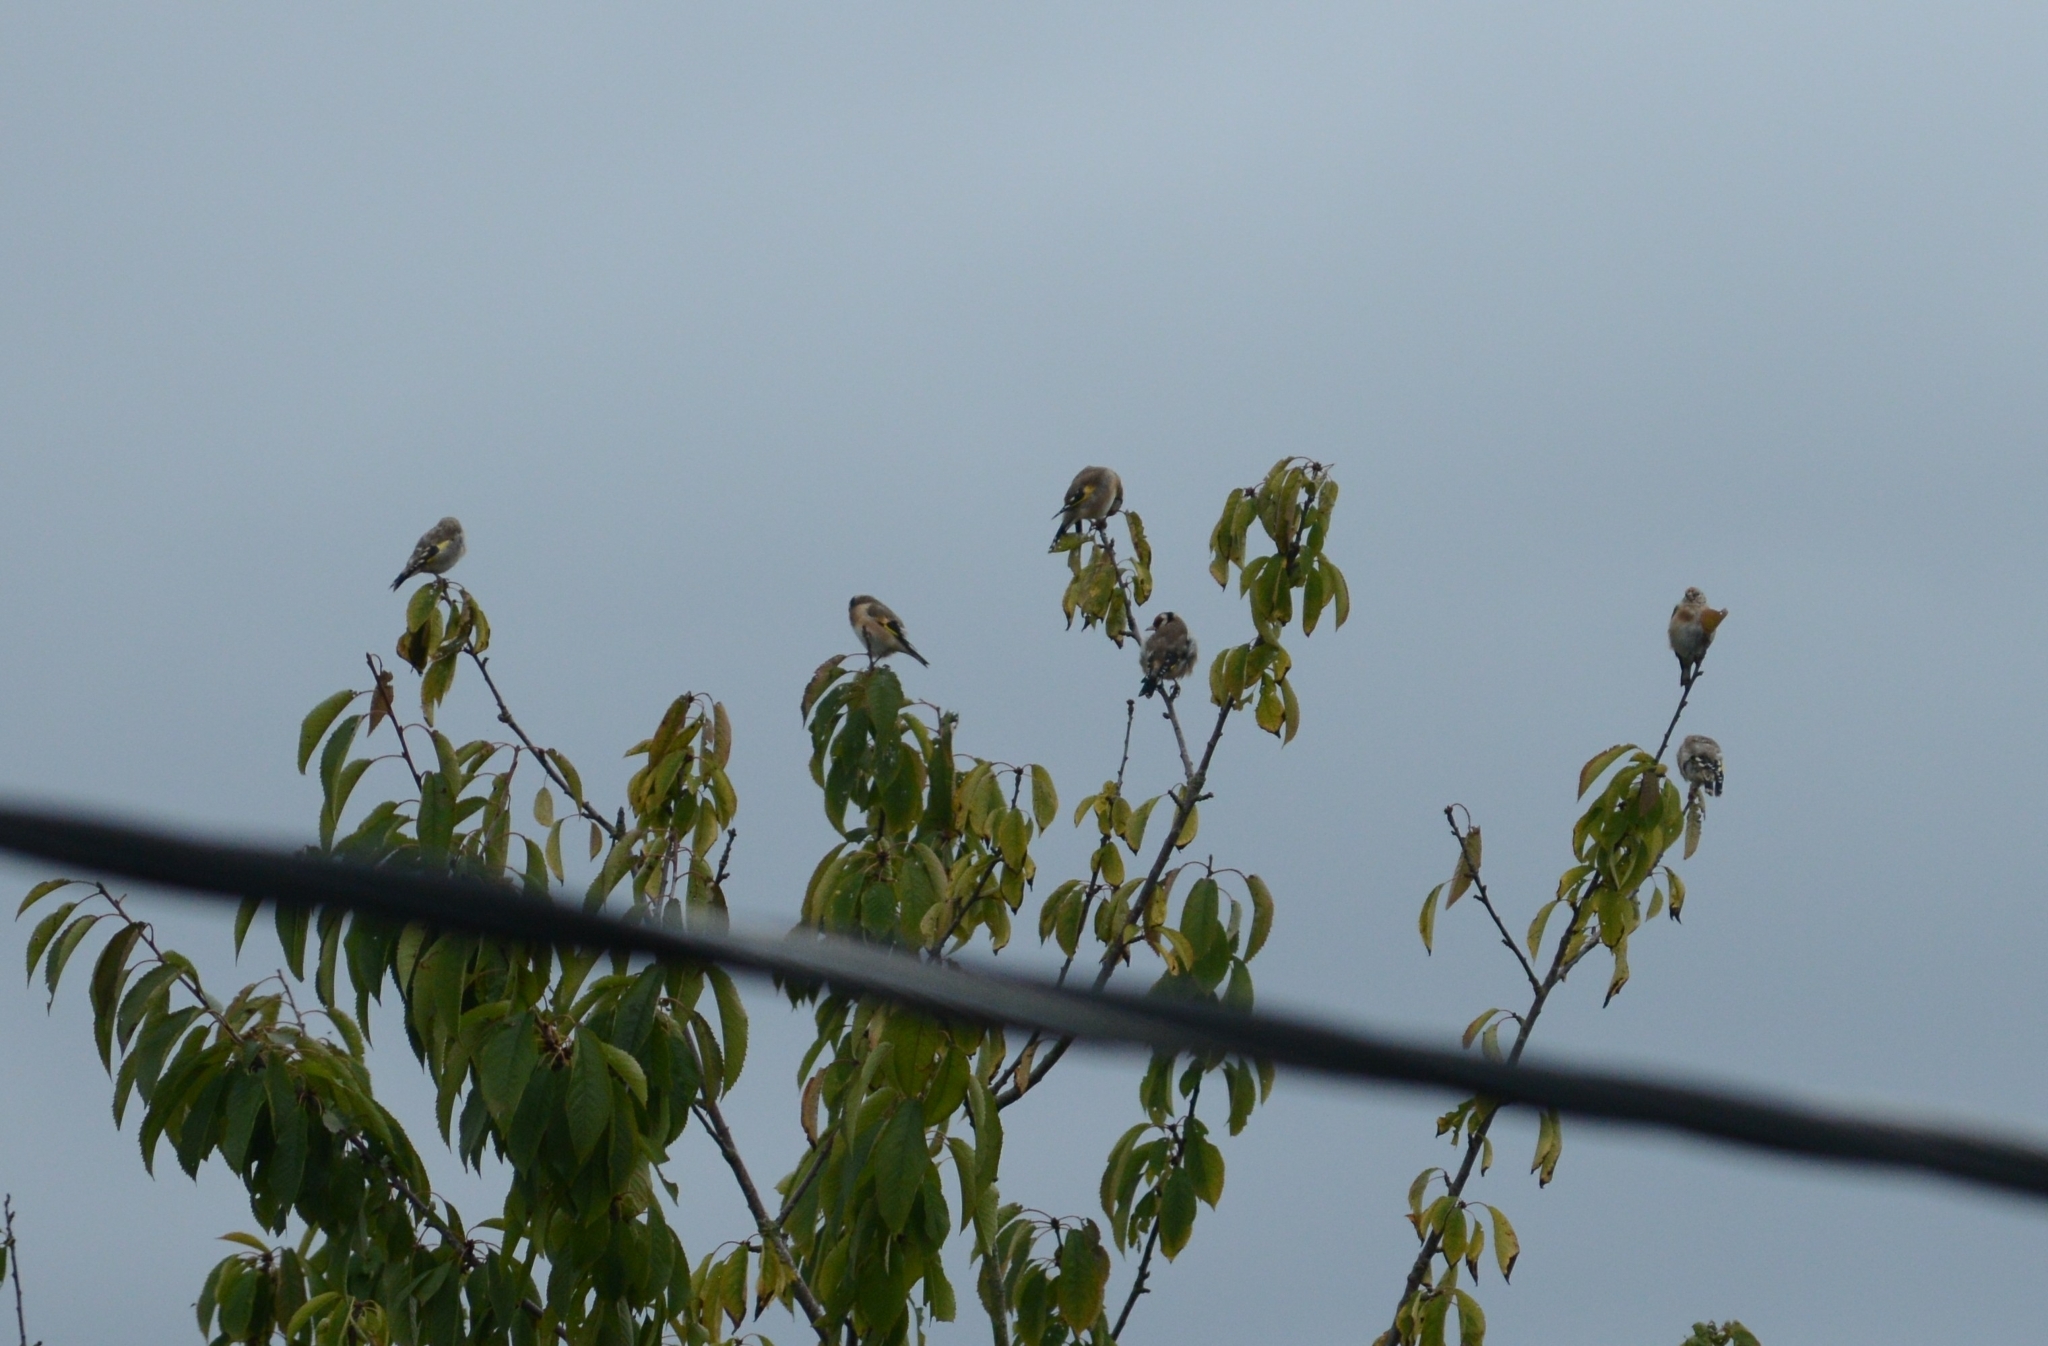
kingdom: Animalia
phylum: Chordata
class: Aves
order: Passeriformes
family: Fringillidae
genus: Carduelis
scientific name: Carduelis carduelis
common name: European goldfinch
